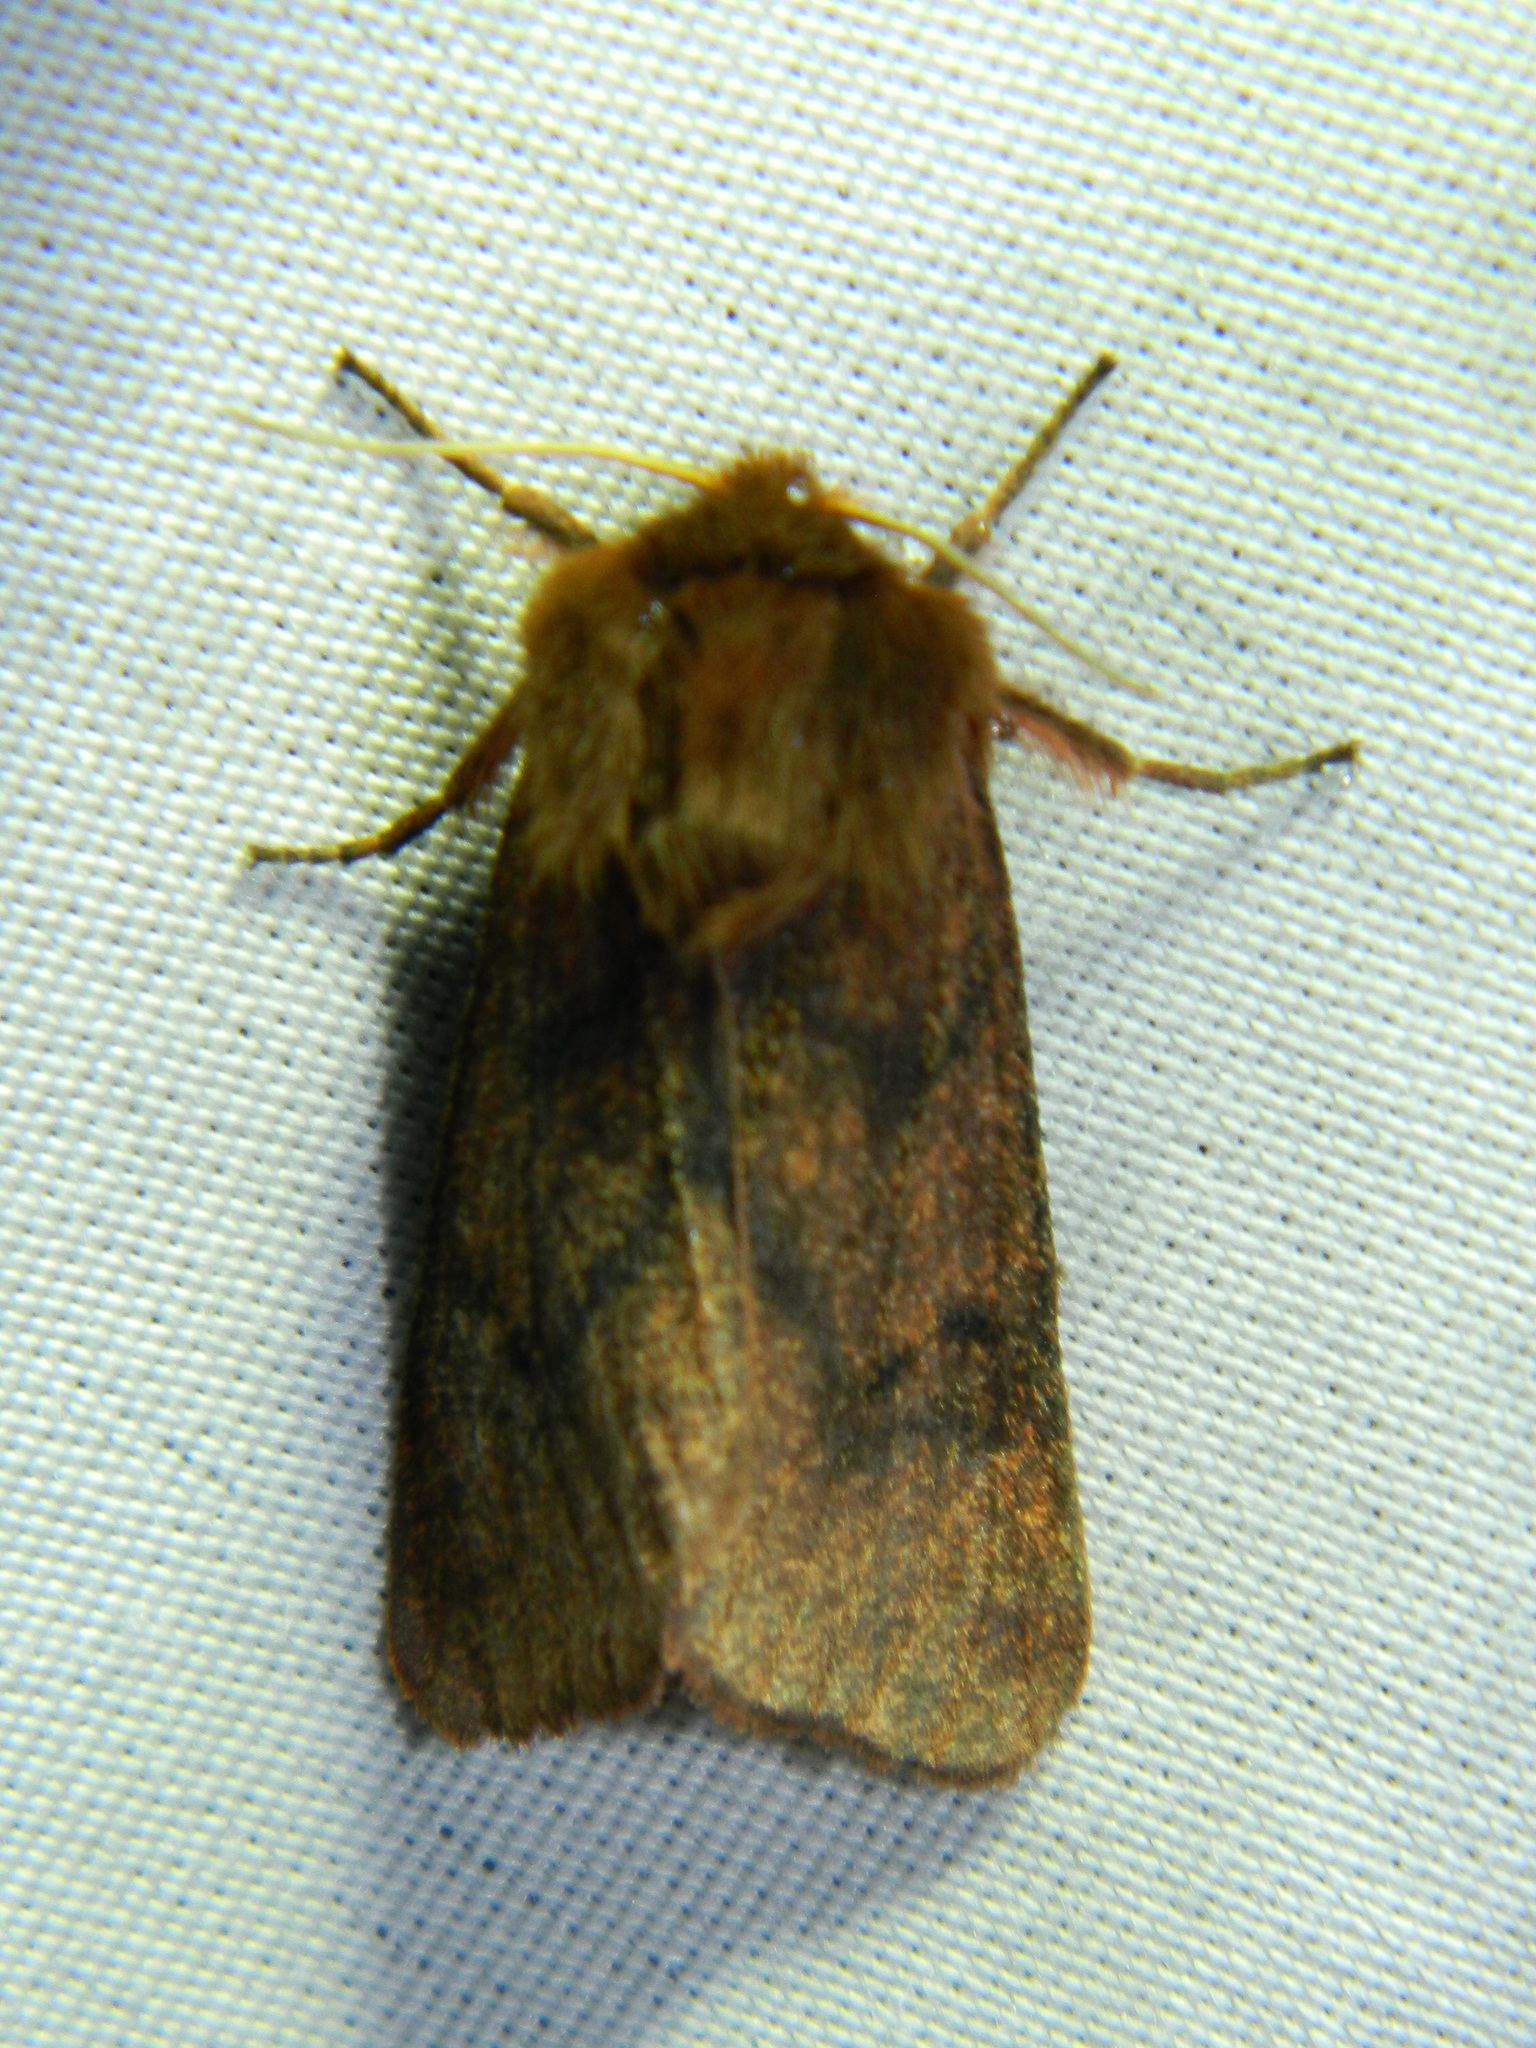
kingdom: Animalia
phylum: Arthropoda
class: Insecta
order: Lepidoptera
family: Erebidae
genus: Phragmatobia
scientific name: Phragmatobia assimilans
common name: Large ruby tiger moth
